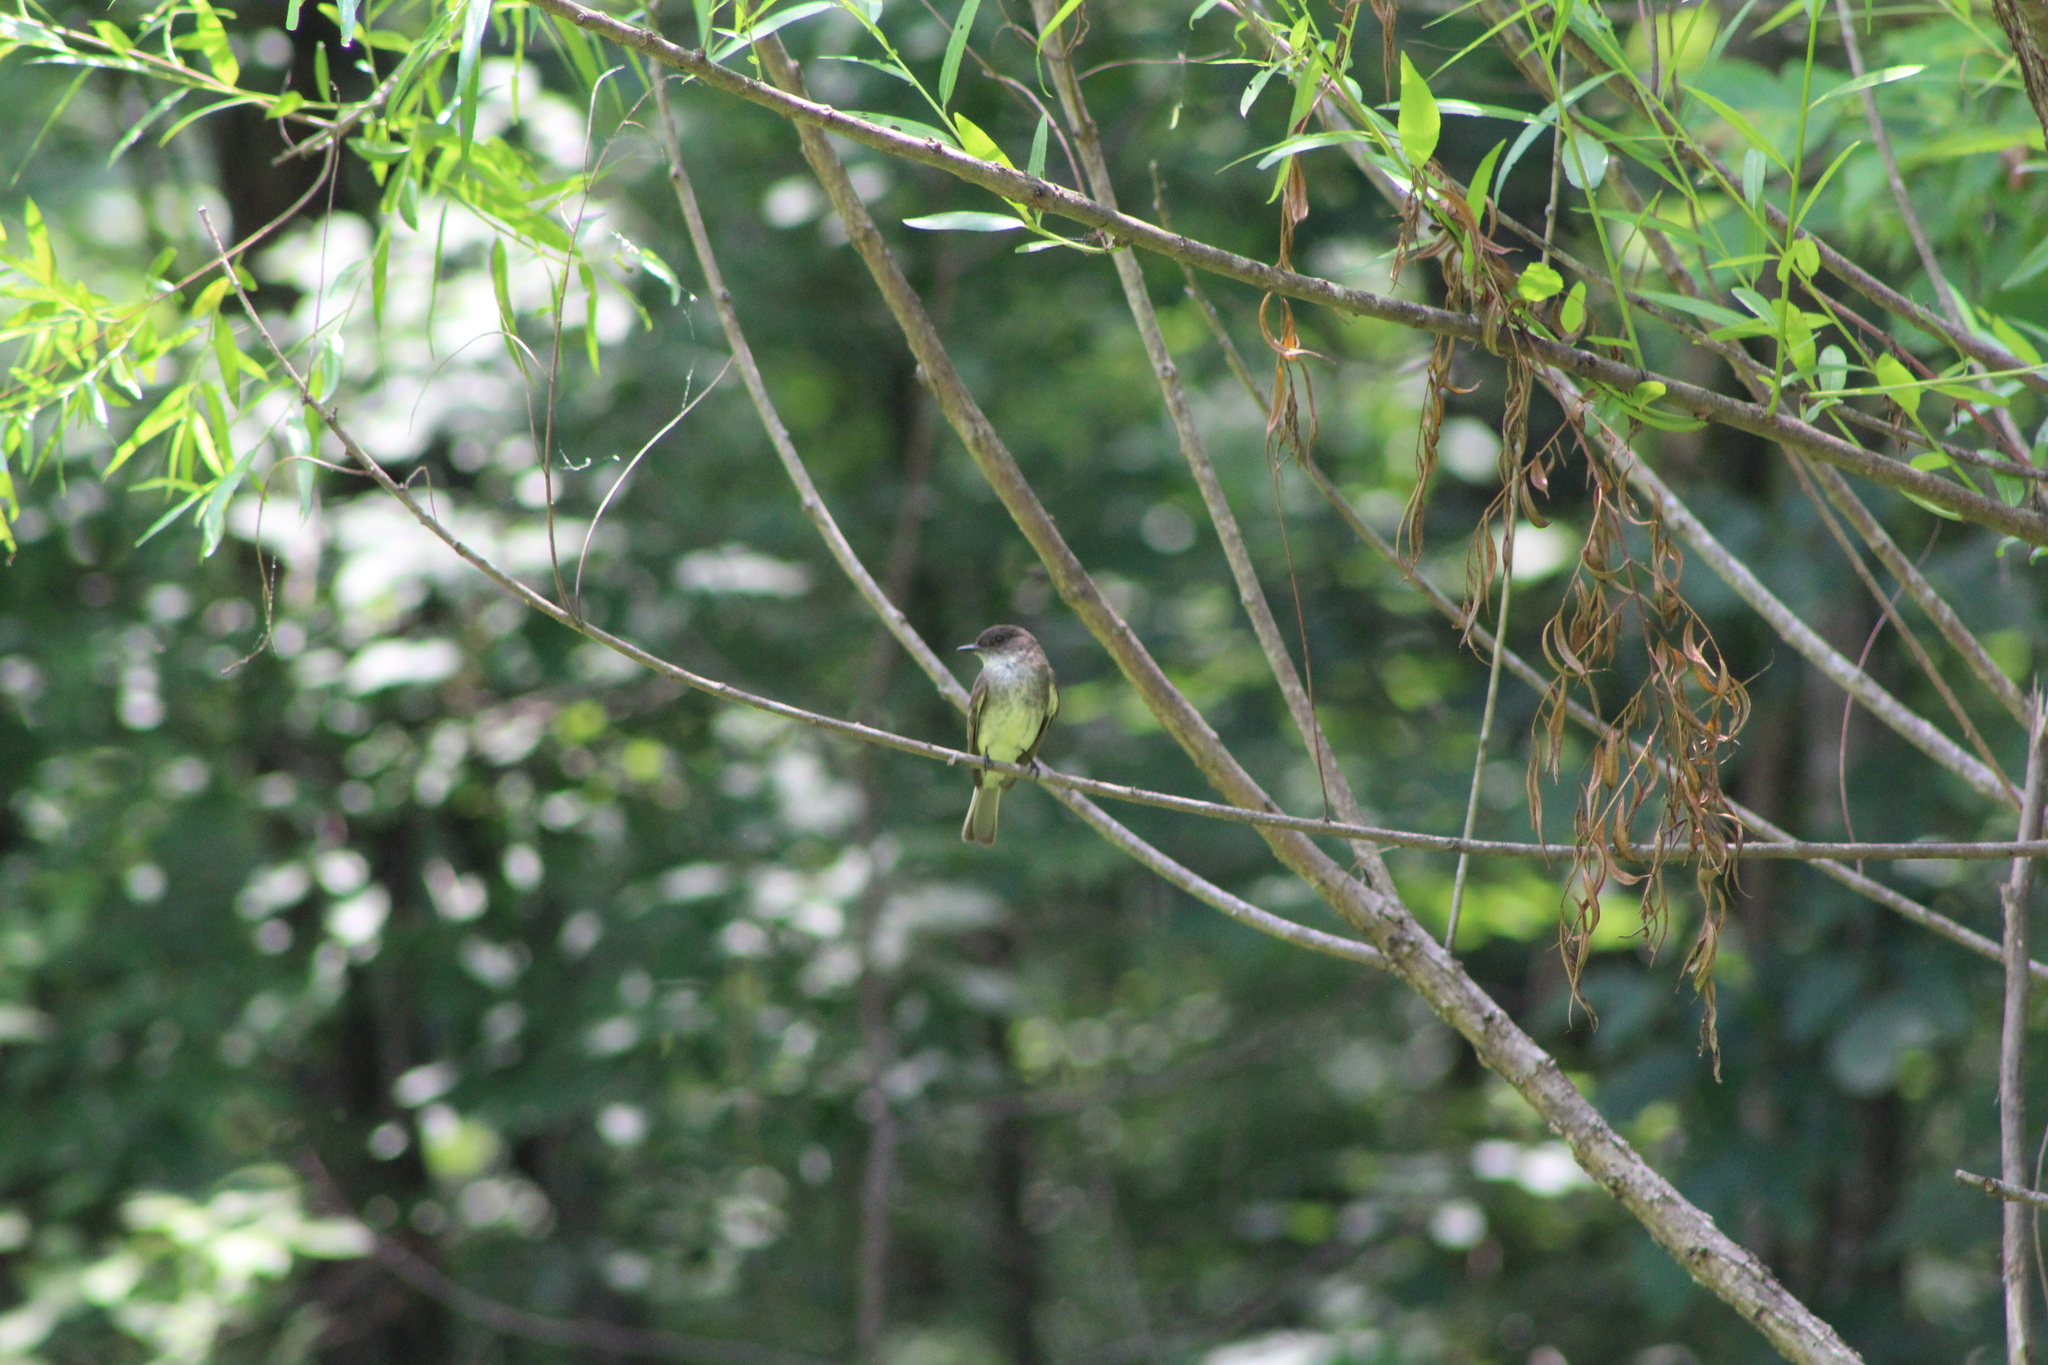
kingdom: Animalia
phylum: Chordata
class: Aves
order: Passeriformes
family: Tyrannidae
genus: Sayornis
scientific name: Sayornis phoebe
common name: Eastern phoebe
